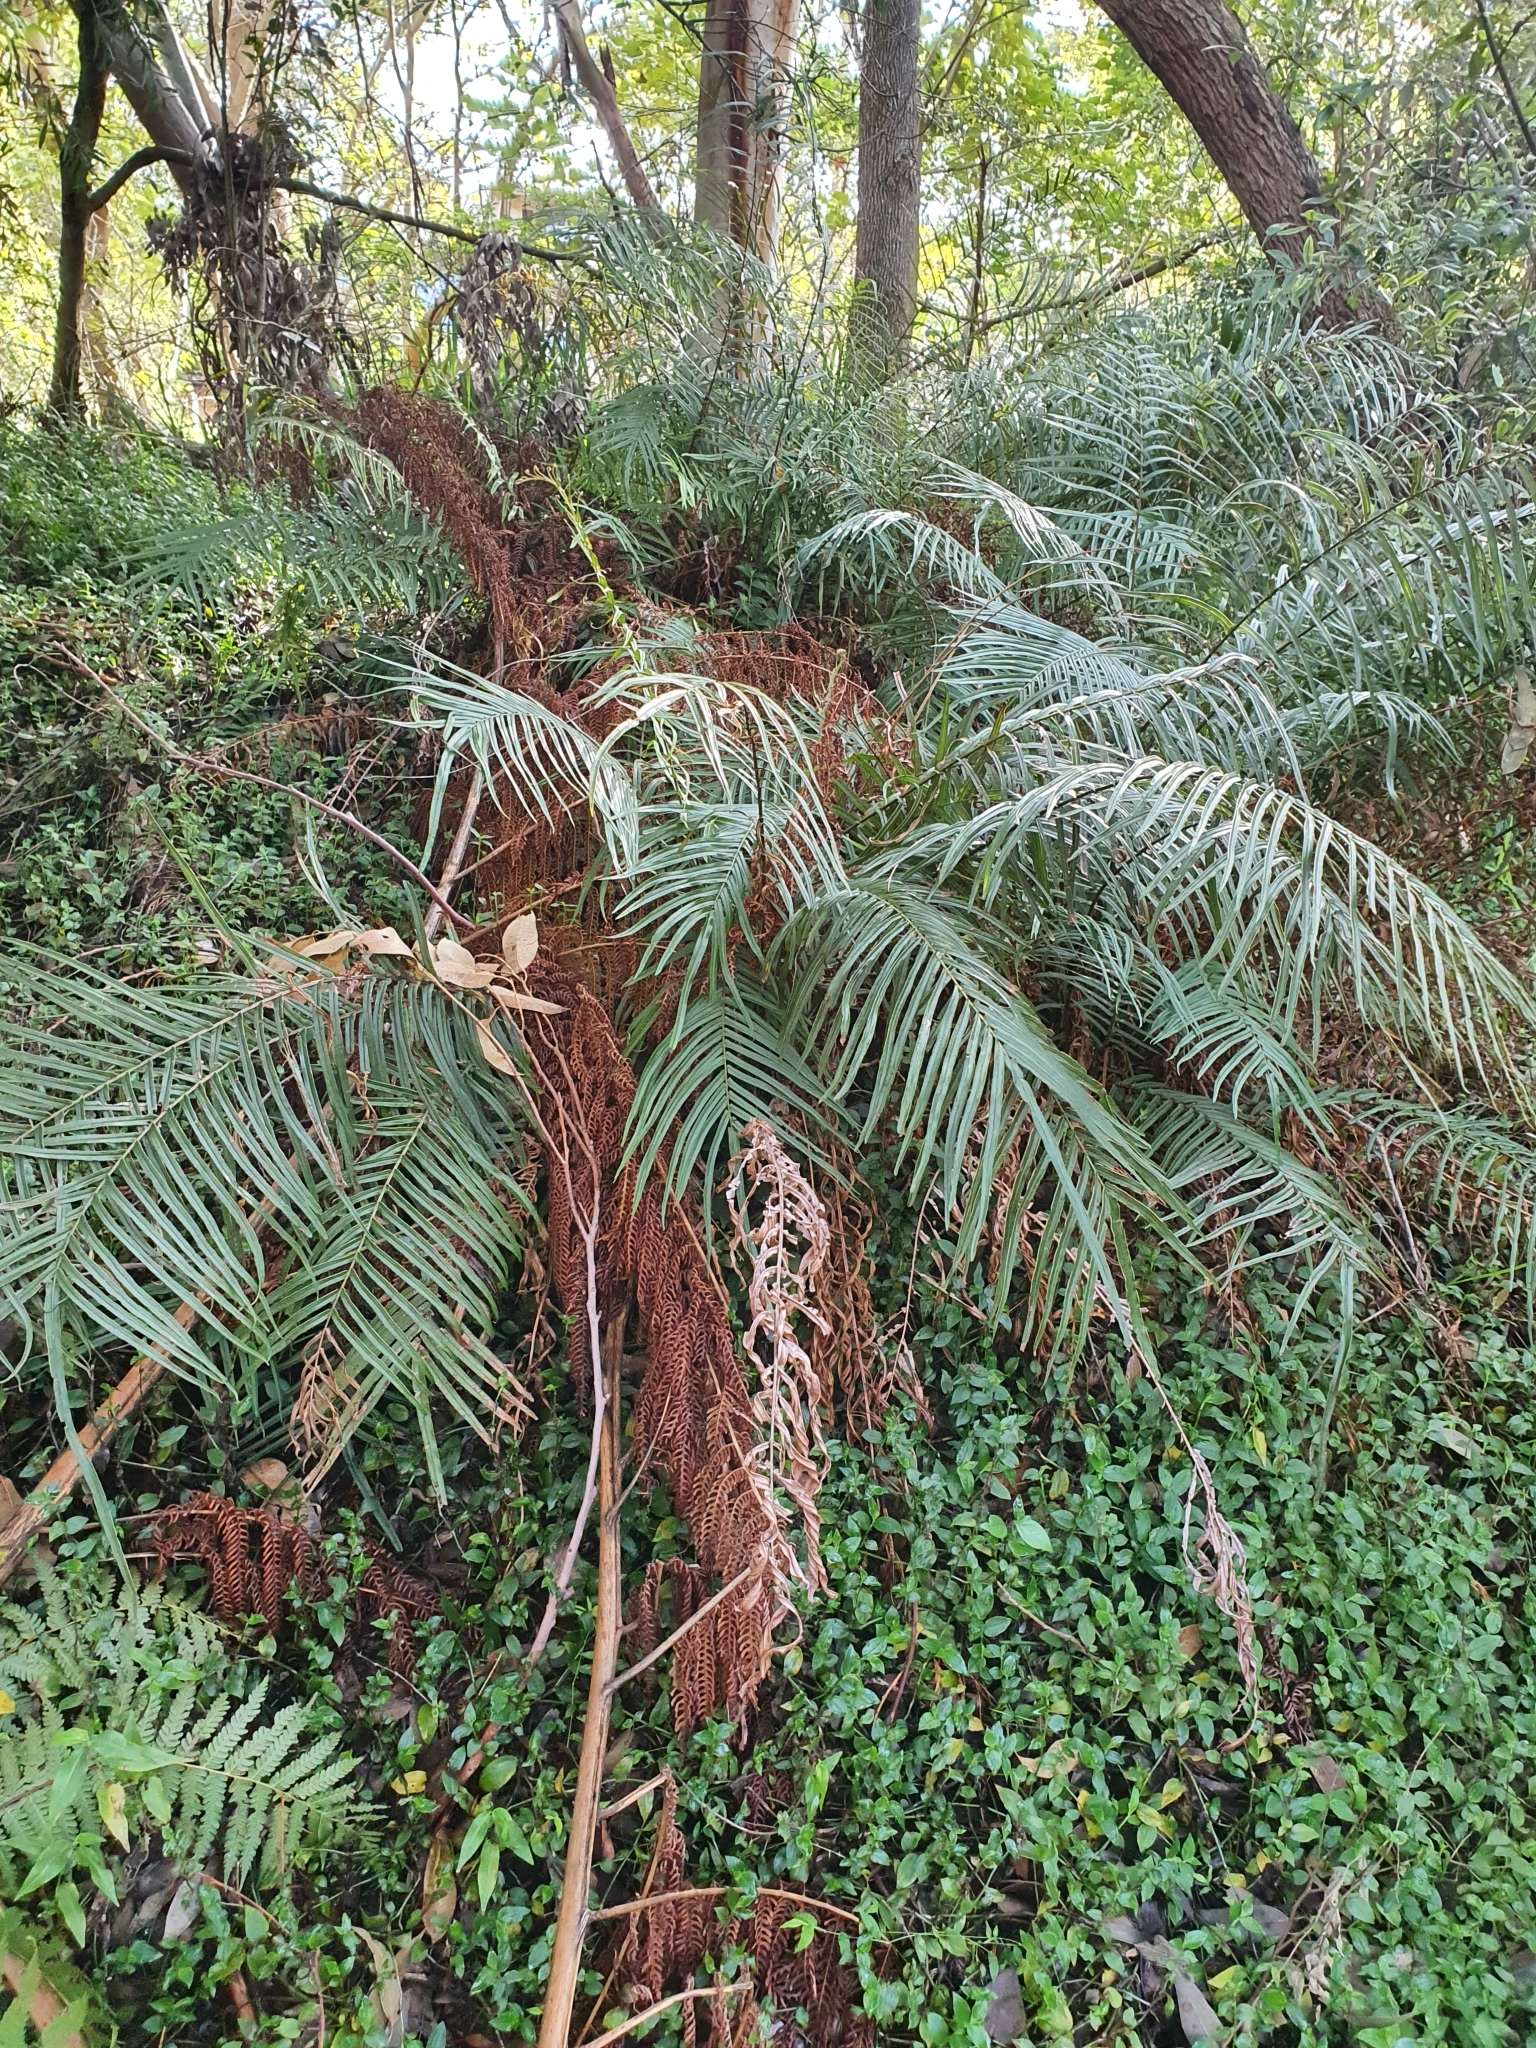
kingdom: Plantae
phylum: Tracheophyta
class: Polypodiopsida
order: Polypodiales
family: Pteridaceae
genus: Pteris
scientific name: Pteris vittata
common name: Ladder brake
